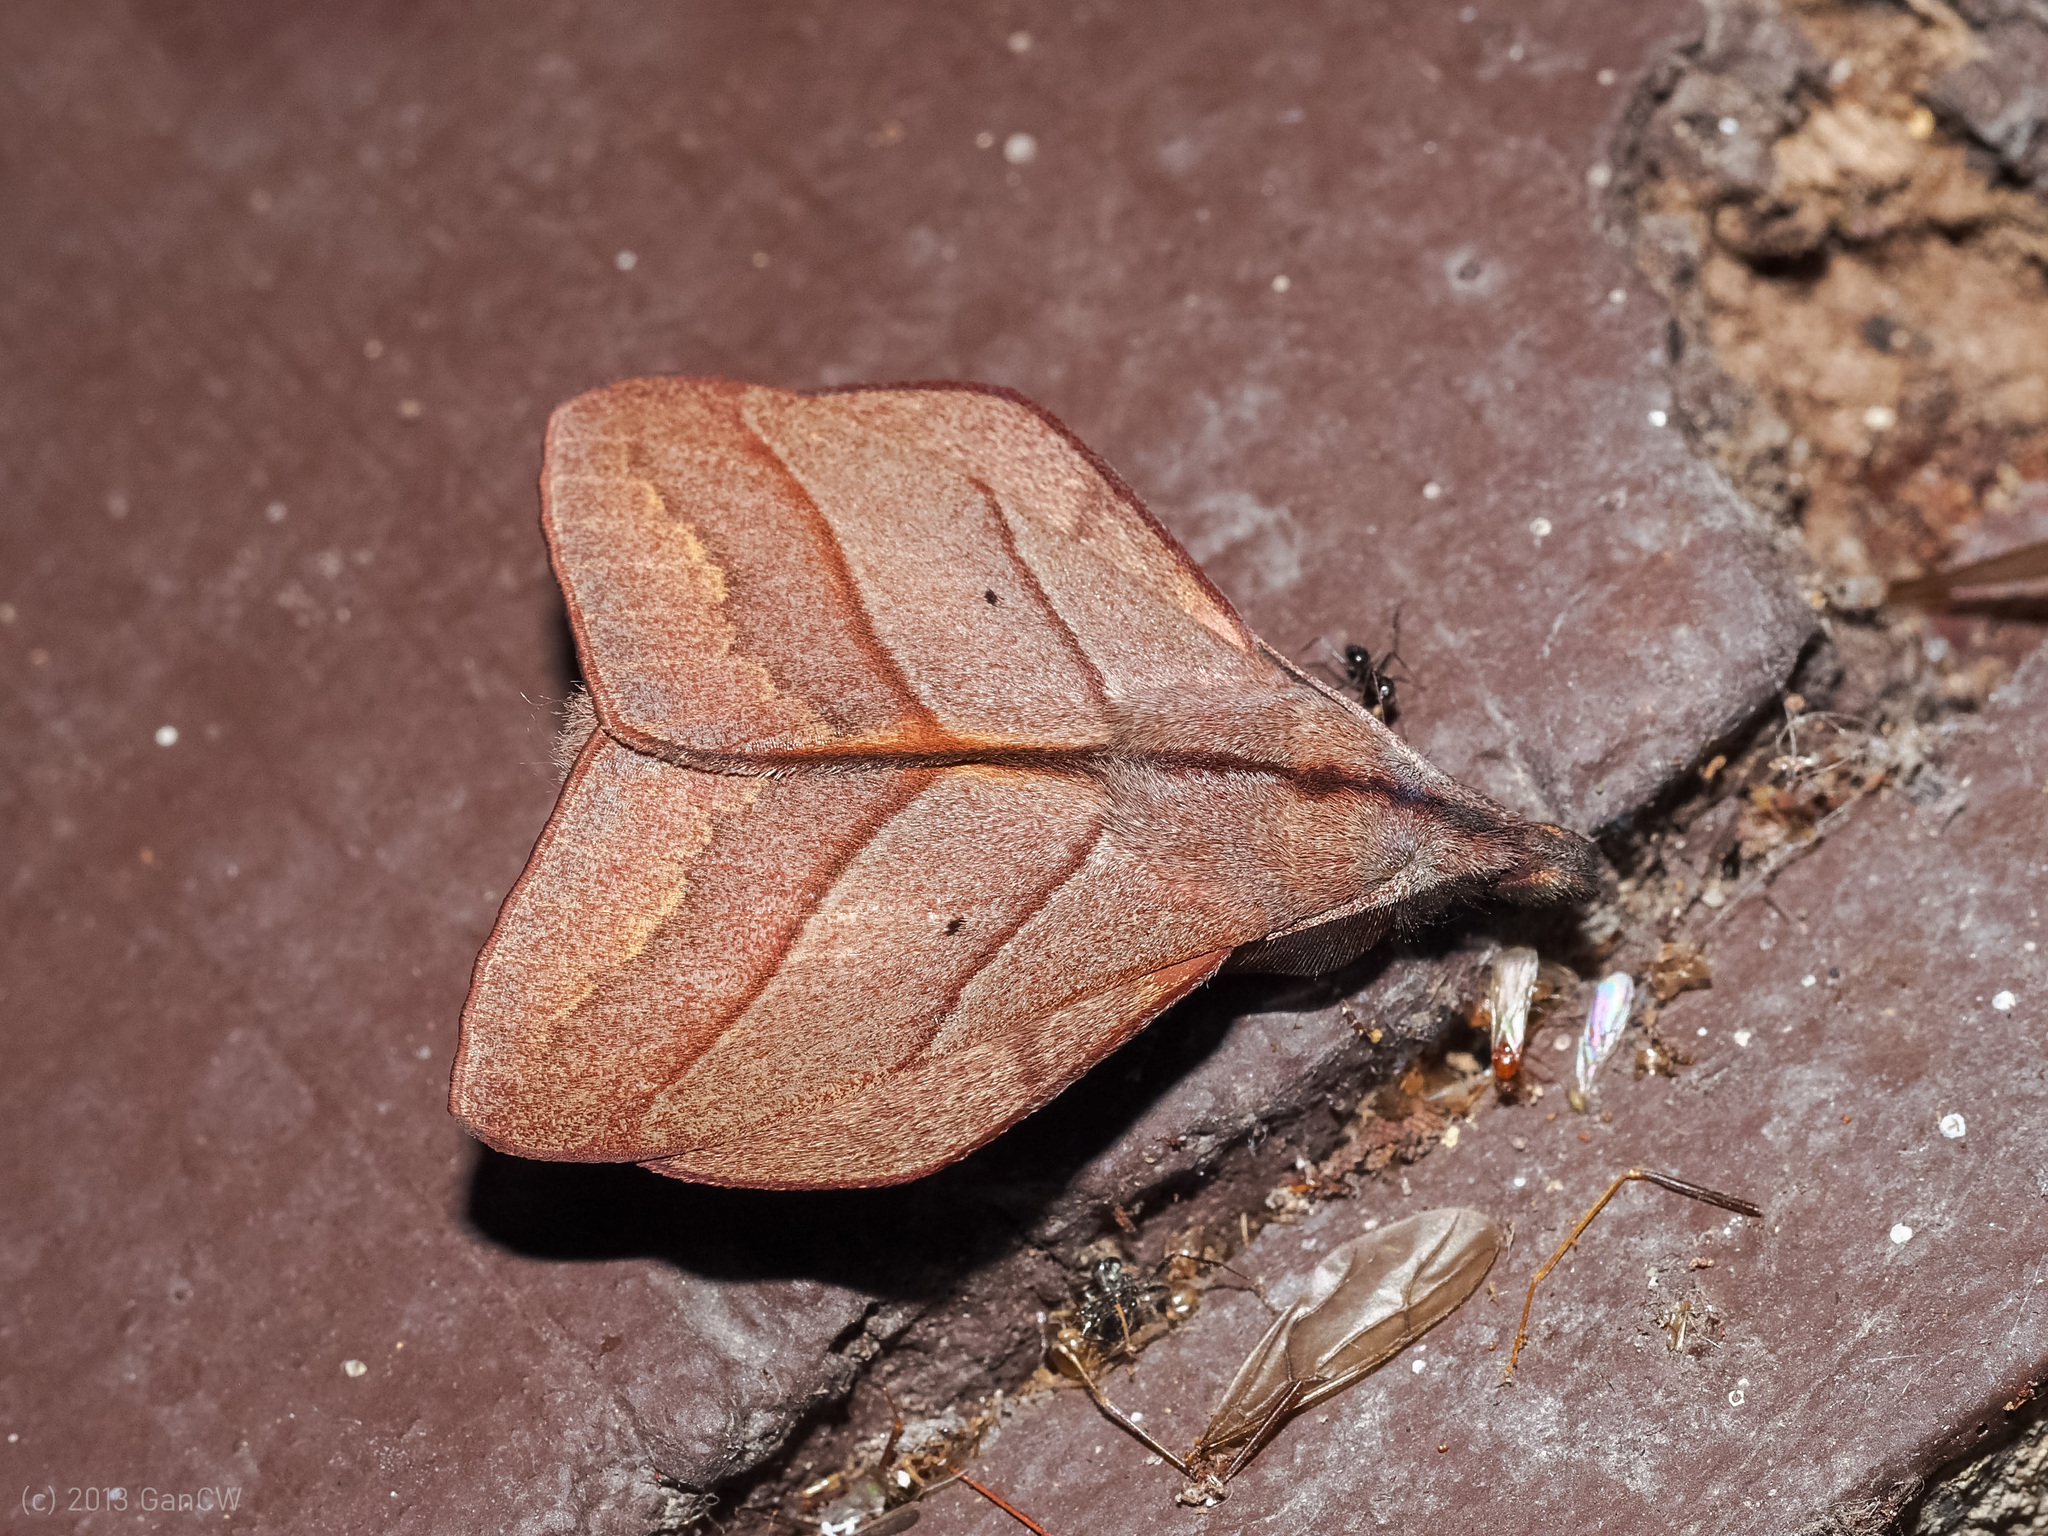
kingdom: Animalia
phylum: Arthropoda
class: Insecta
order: Lepidoptera
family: Lasiocampidae
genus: Arguda
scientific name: Arguda rectilinea
